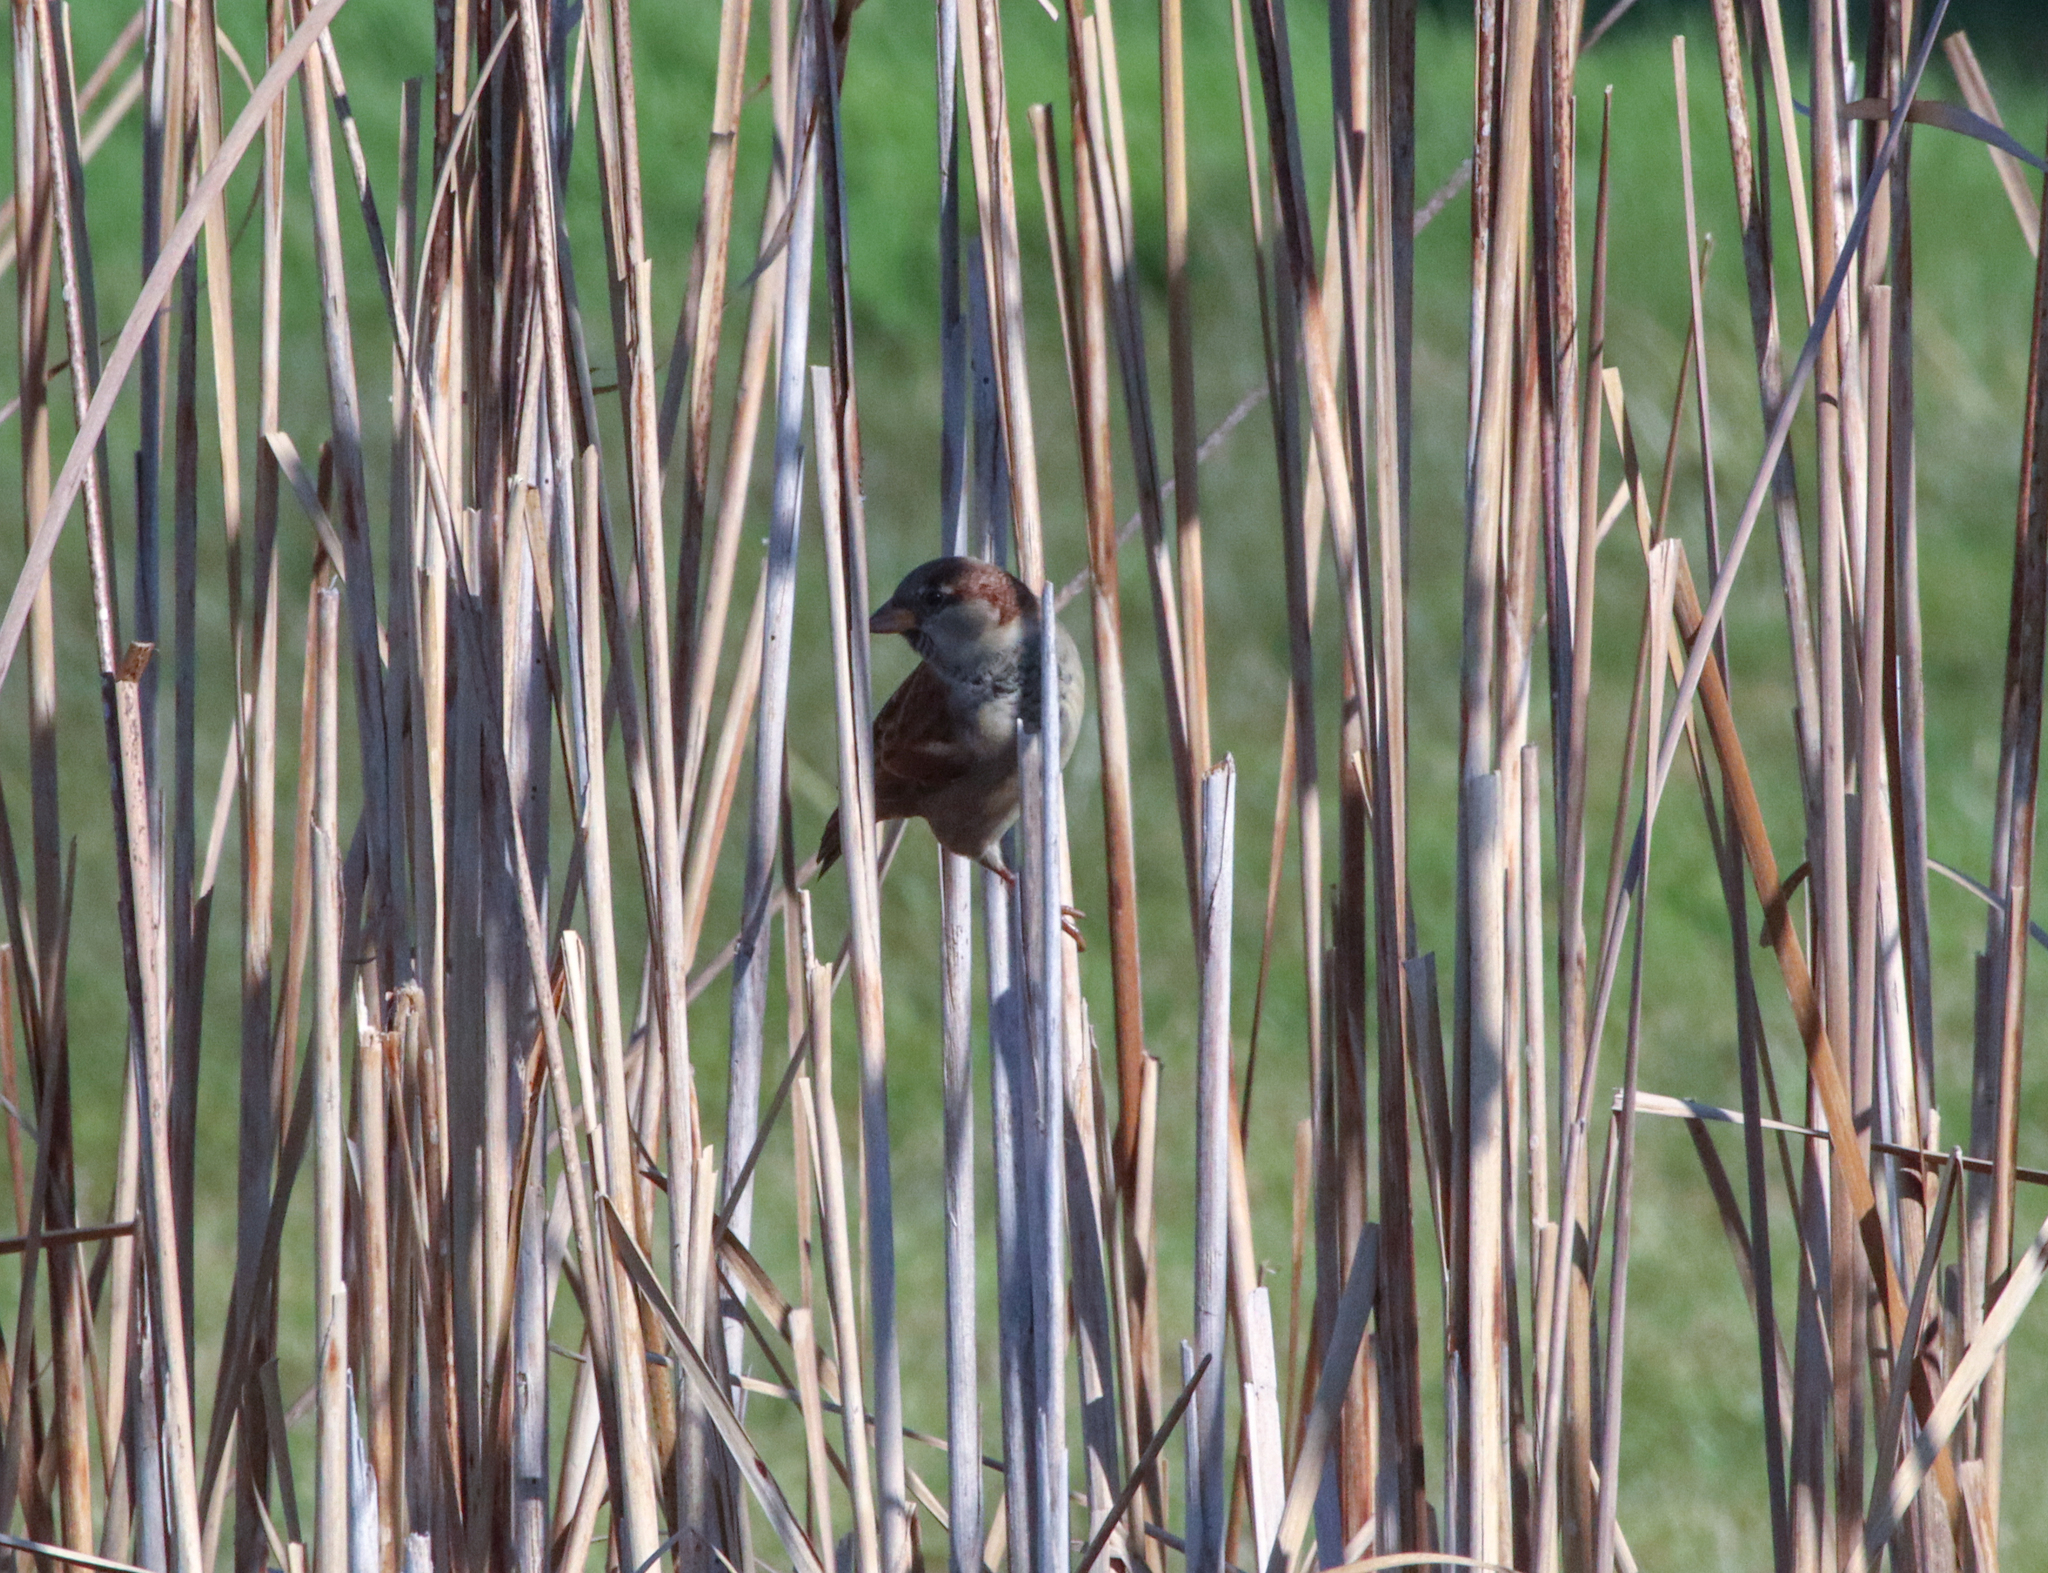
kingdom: Animalia
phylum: Chordata
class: Aves
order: Passeriformes
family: Passeridae
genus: Passer
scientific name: Passer domesticus
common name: House sparrow
